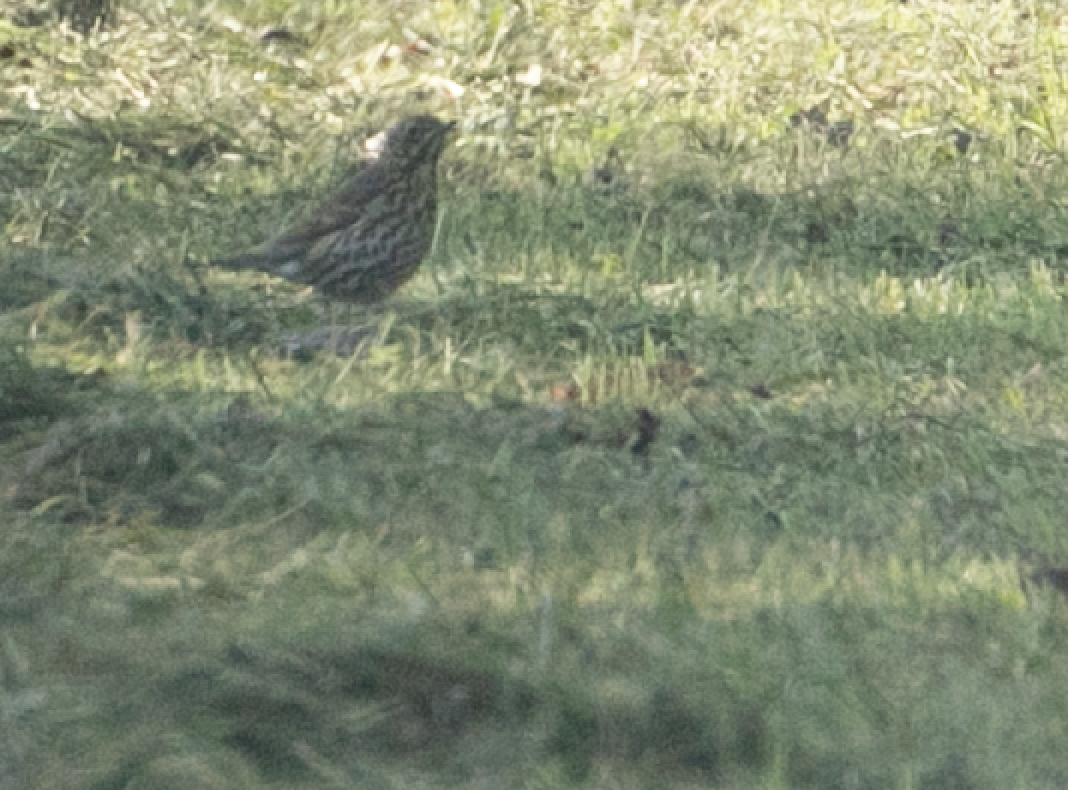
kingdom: Animalia
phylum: Chordata
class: Aves
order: Passeriformes
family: Turdidae
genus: Turdus
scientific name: Turdus philomelos
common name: Song thrush
